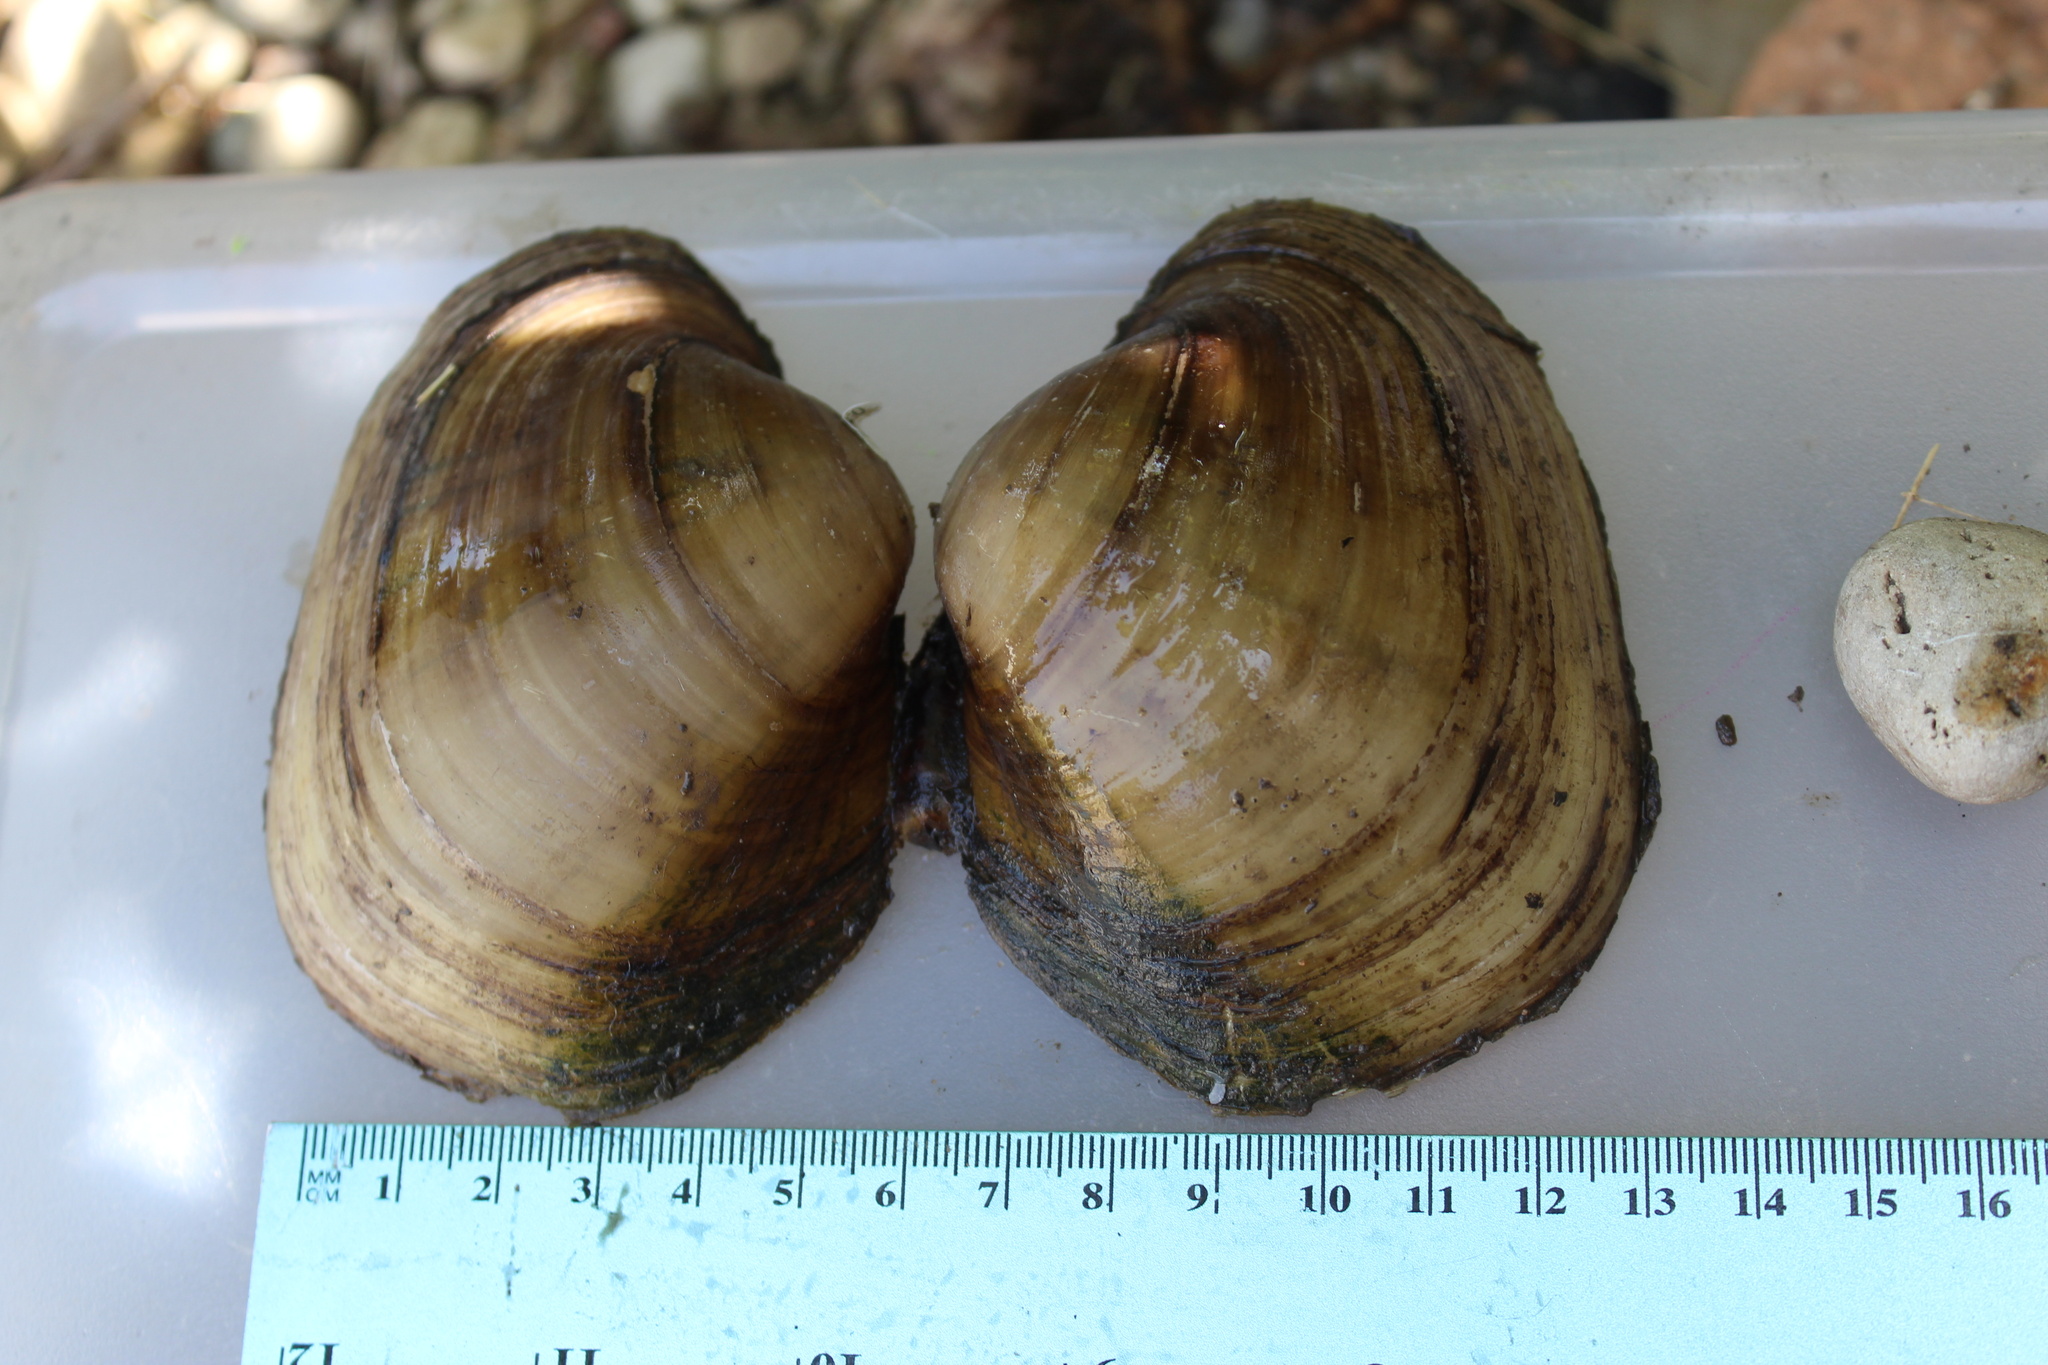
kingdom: Animalia
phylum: Mollusca
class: Bivalvia
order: Unionida
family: Unionidae
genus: Lampsilis
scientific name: Lampsilis cardium
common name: Plain pocketbook
